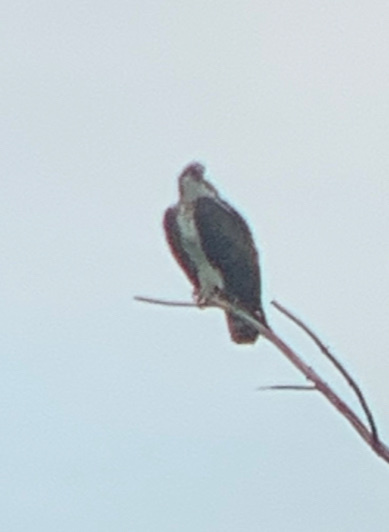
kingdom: Animalia
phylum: Chordata
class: Aves
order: Accipitriformes
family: Pandionidae
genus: Pandion
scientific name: Pandion haliaetus
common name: Osprey
